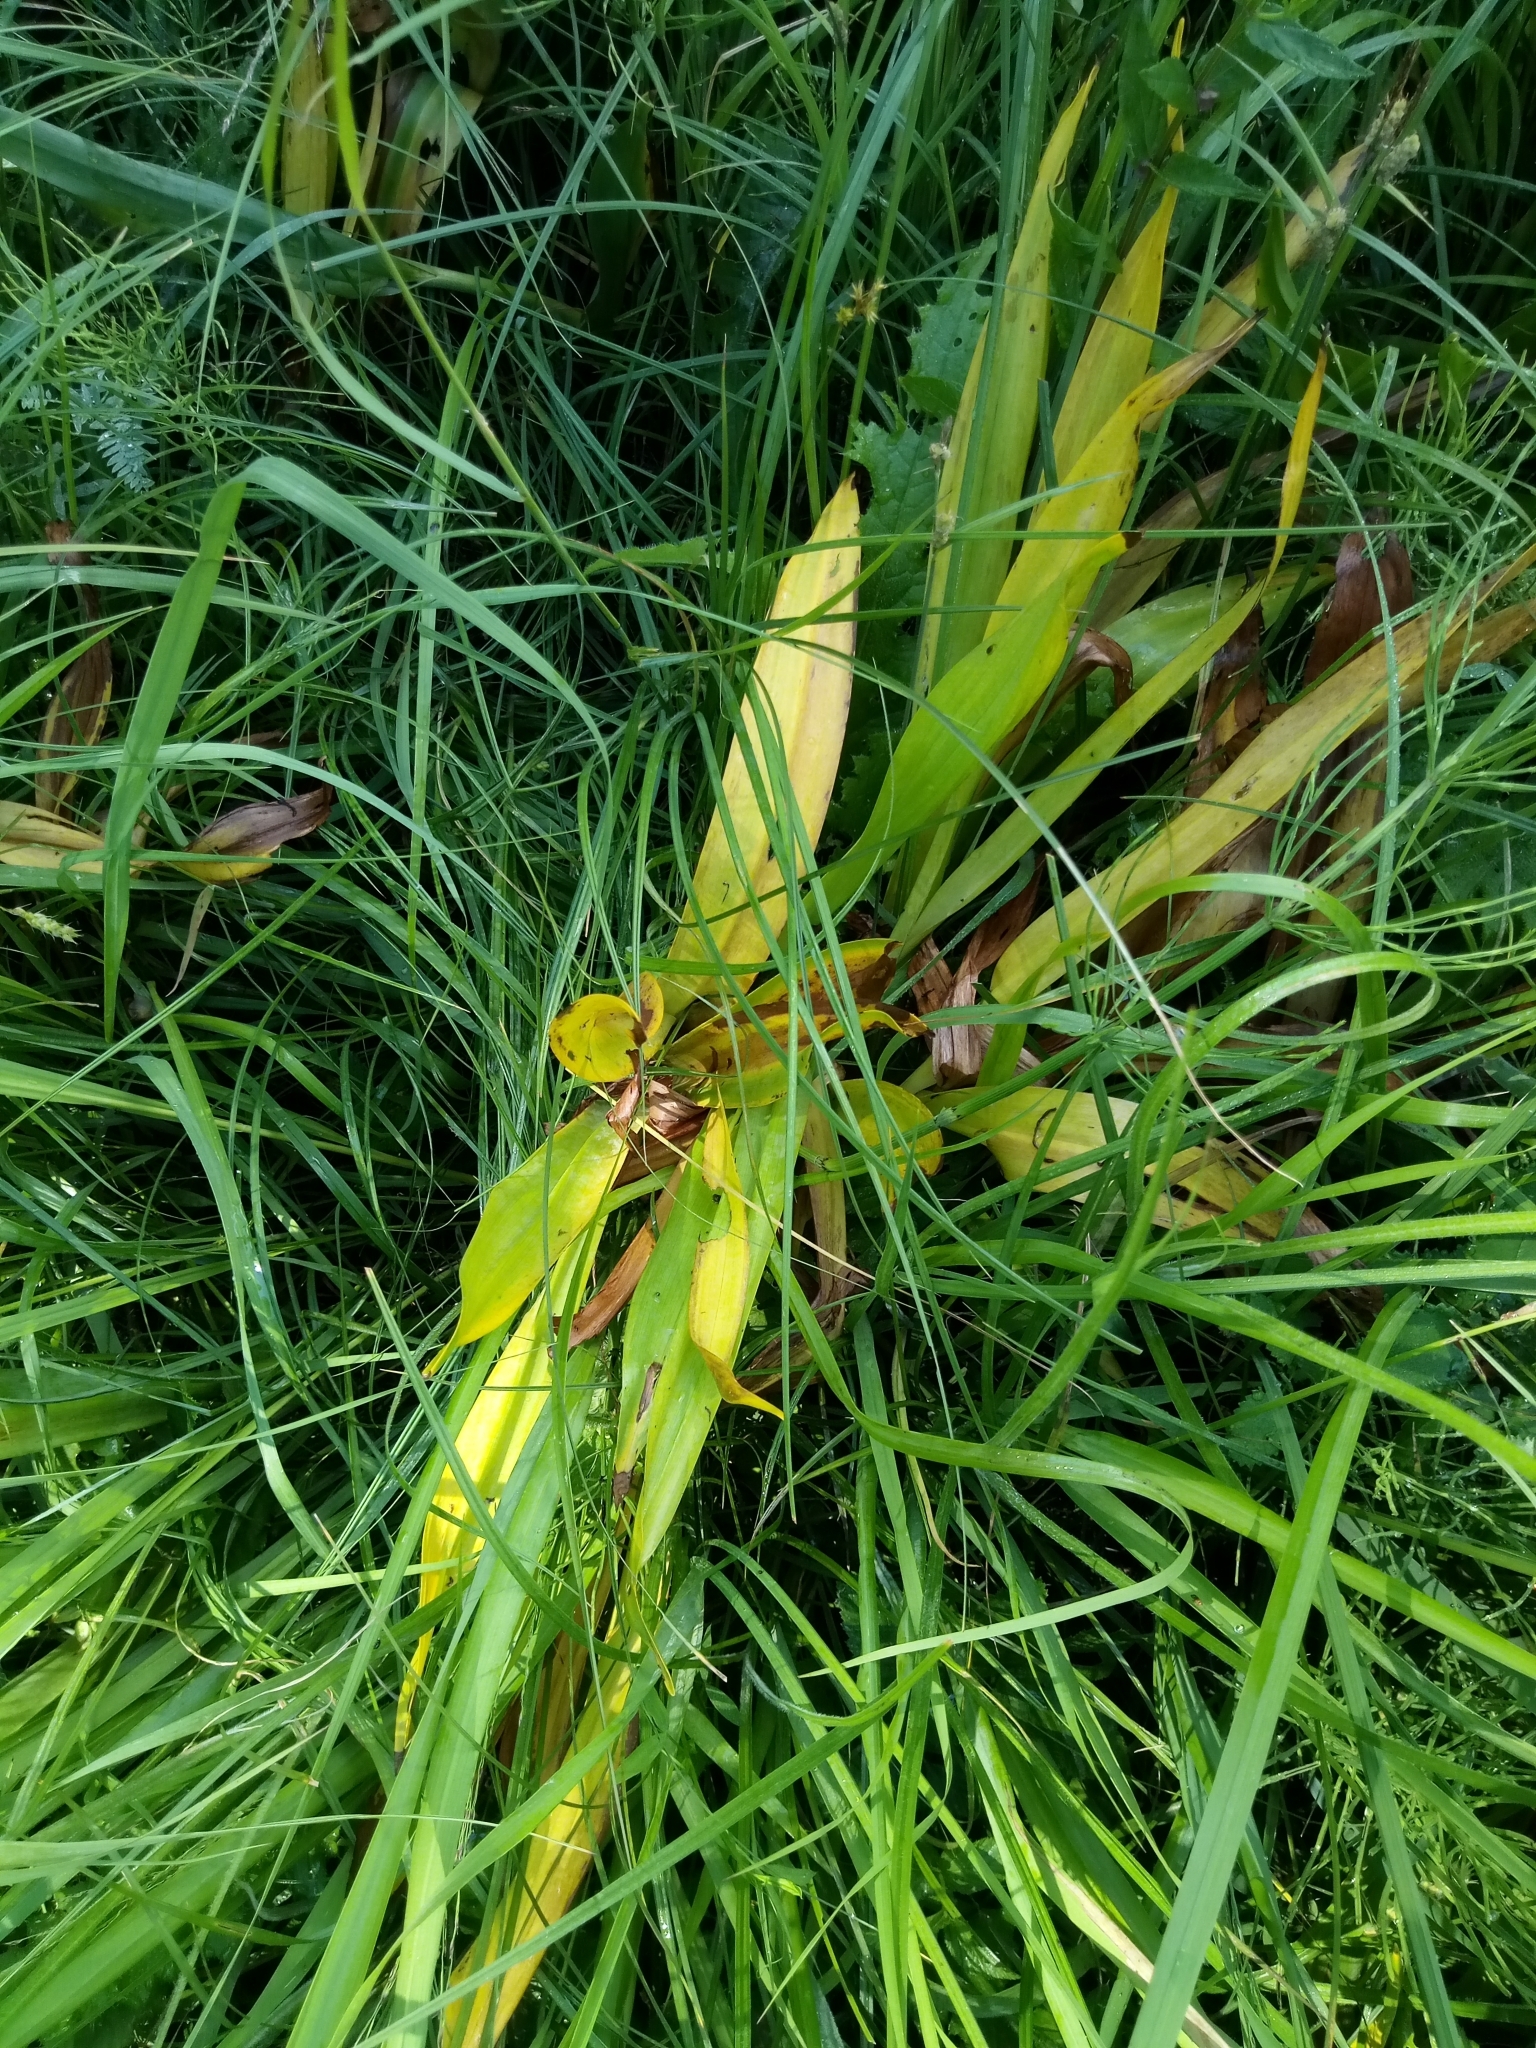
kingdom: Plantae
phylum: Tracheophyta
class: Liliopsida
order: Liliales
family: Colchicaceae
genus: Colchicum
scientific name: Colchicum autumnale
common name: Autumn crocus
